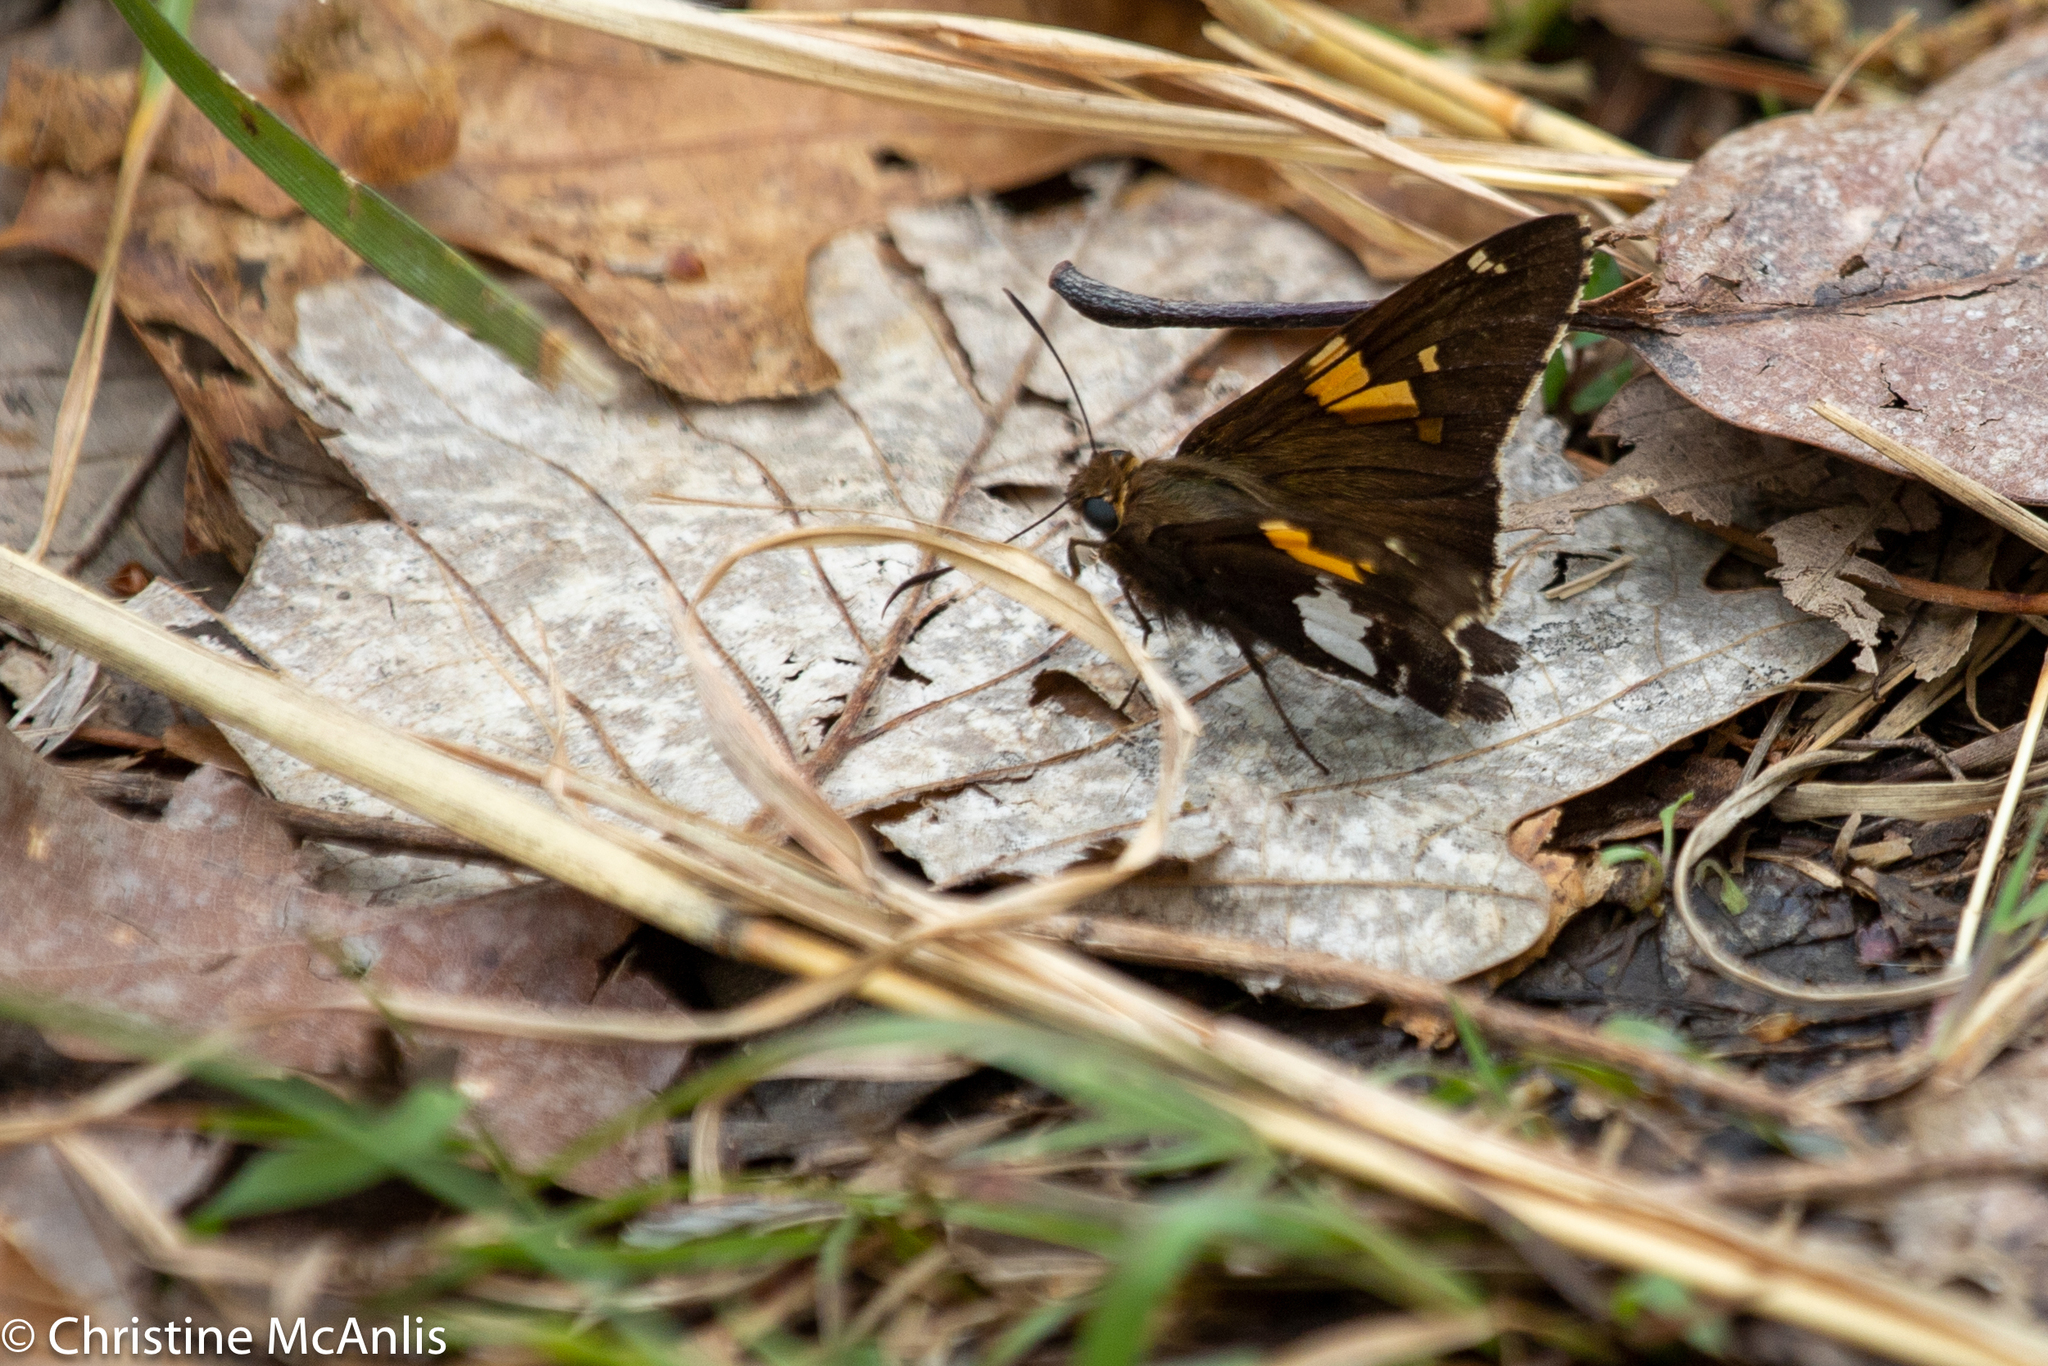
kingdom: Animalia
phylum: Arthropoda
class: Insecta
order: Lepidoptera
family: Hesperiidae
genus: Epargyreus
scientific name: Epargyreus clarus
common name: Silver-spotted skipper
